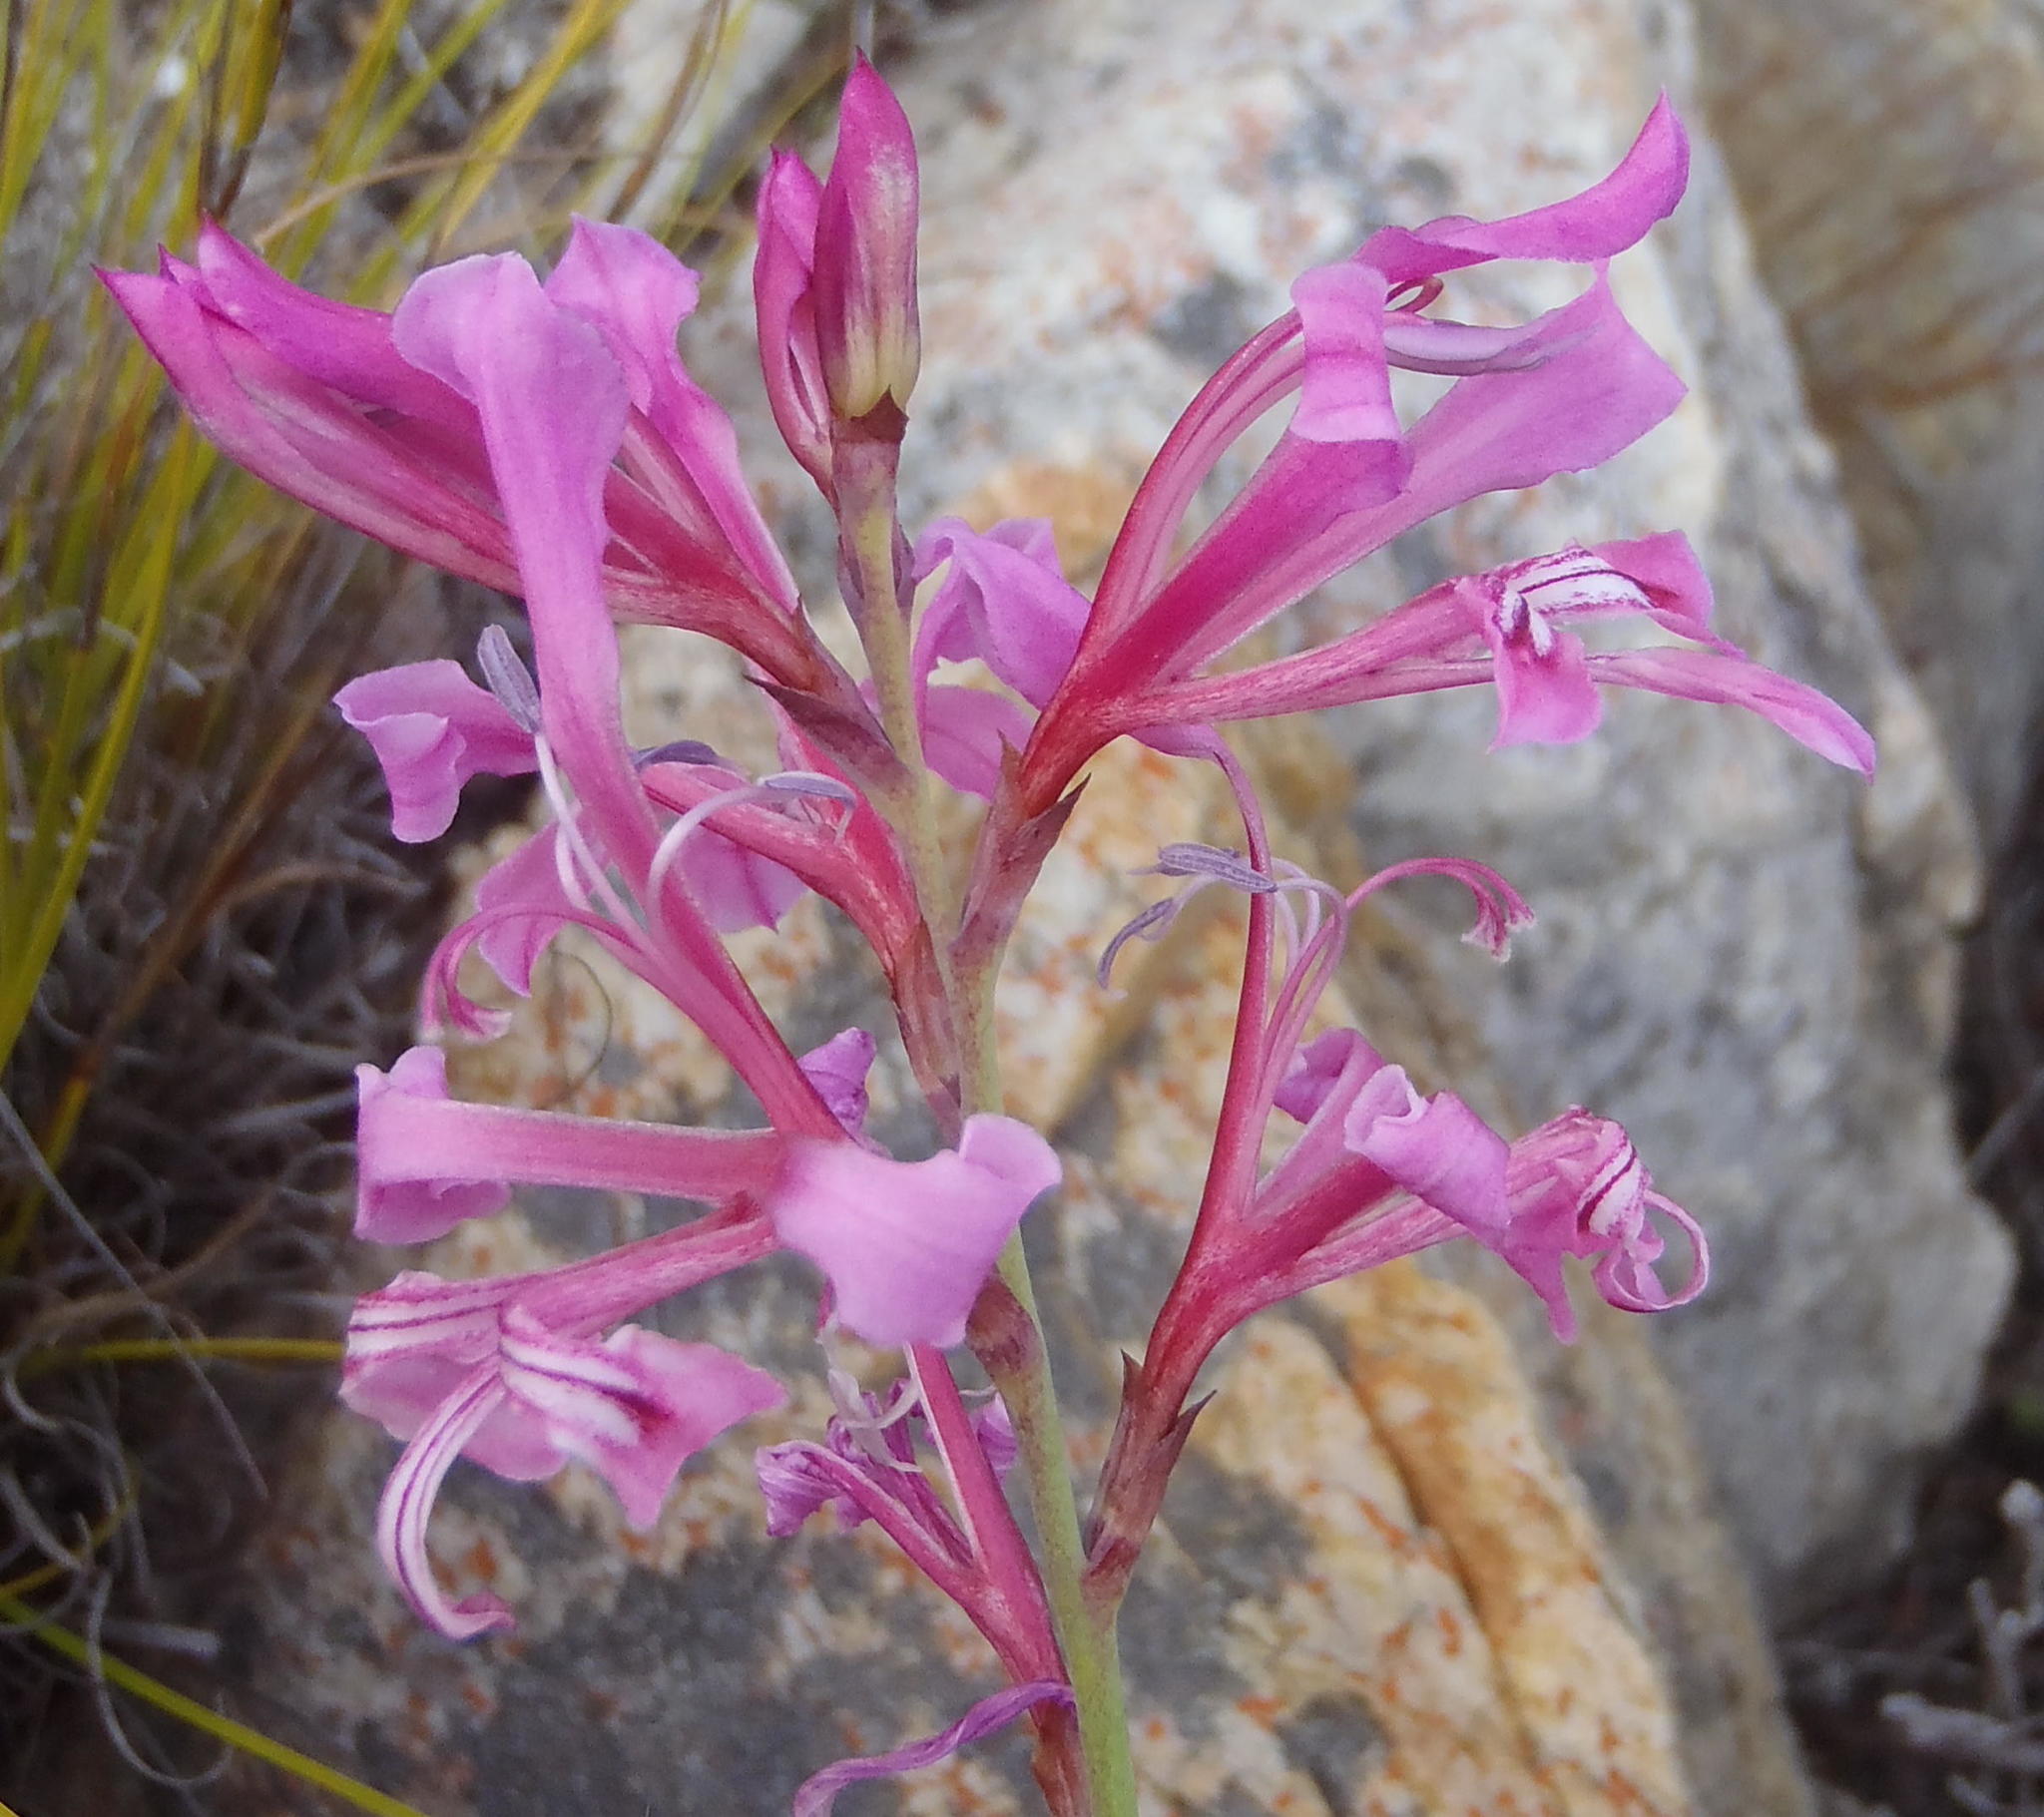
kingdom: Plantae
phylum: Tracheophyta
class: Liliopsida
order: Asparagales
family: Iridaceae
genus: Tritoniopsis
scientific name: Tritoniopsis lata
